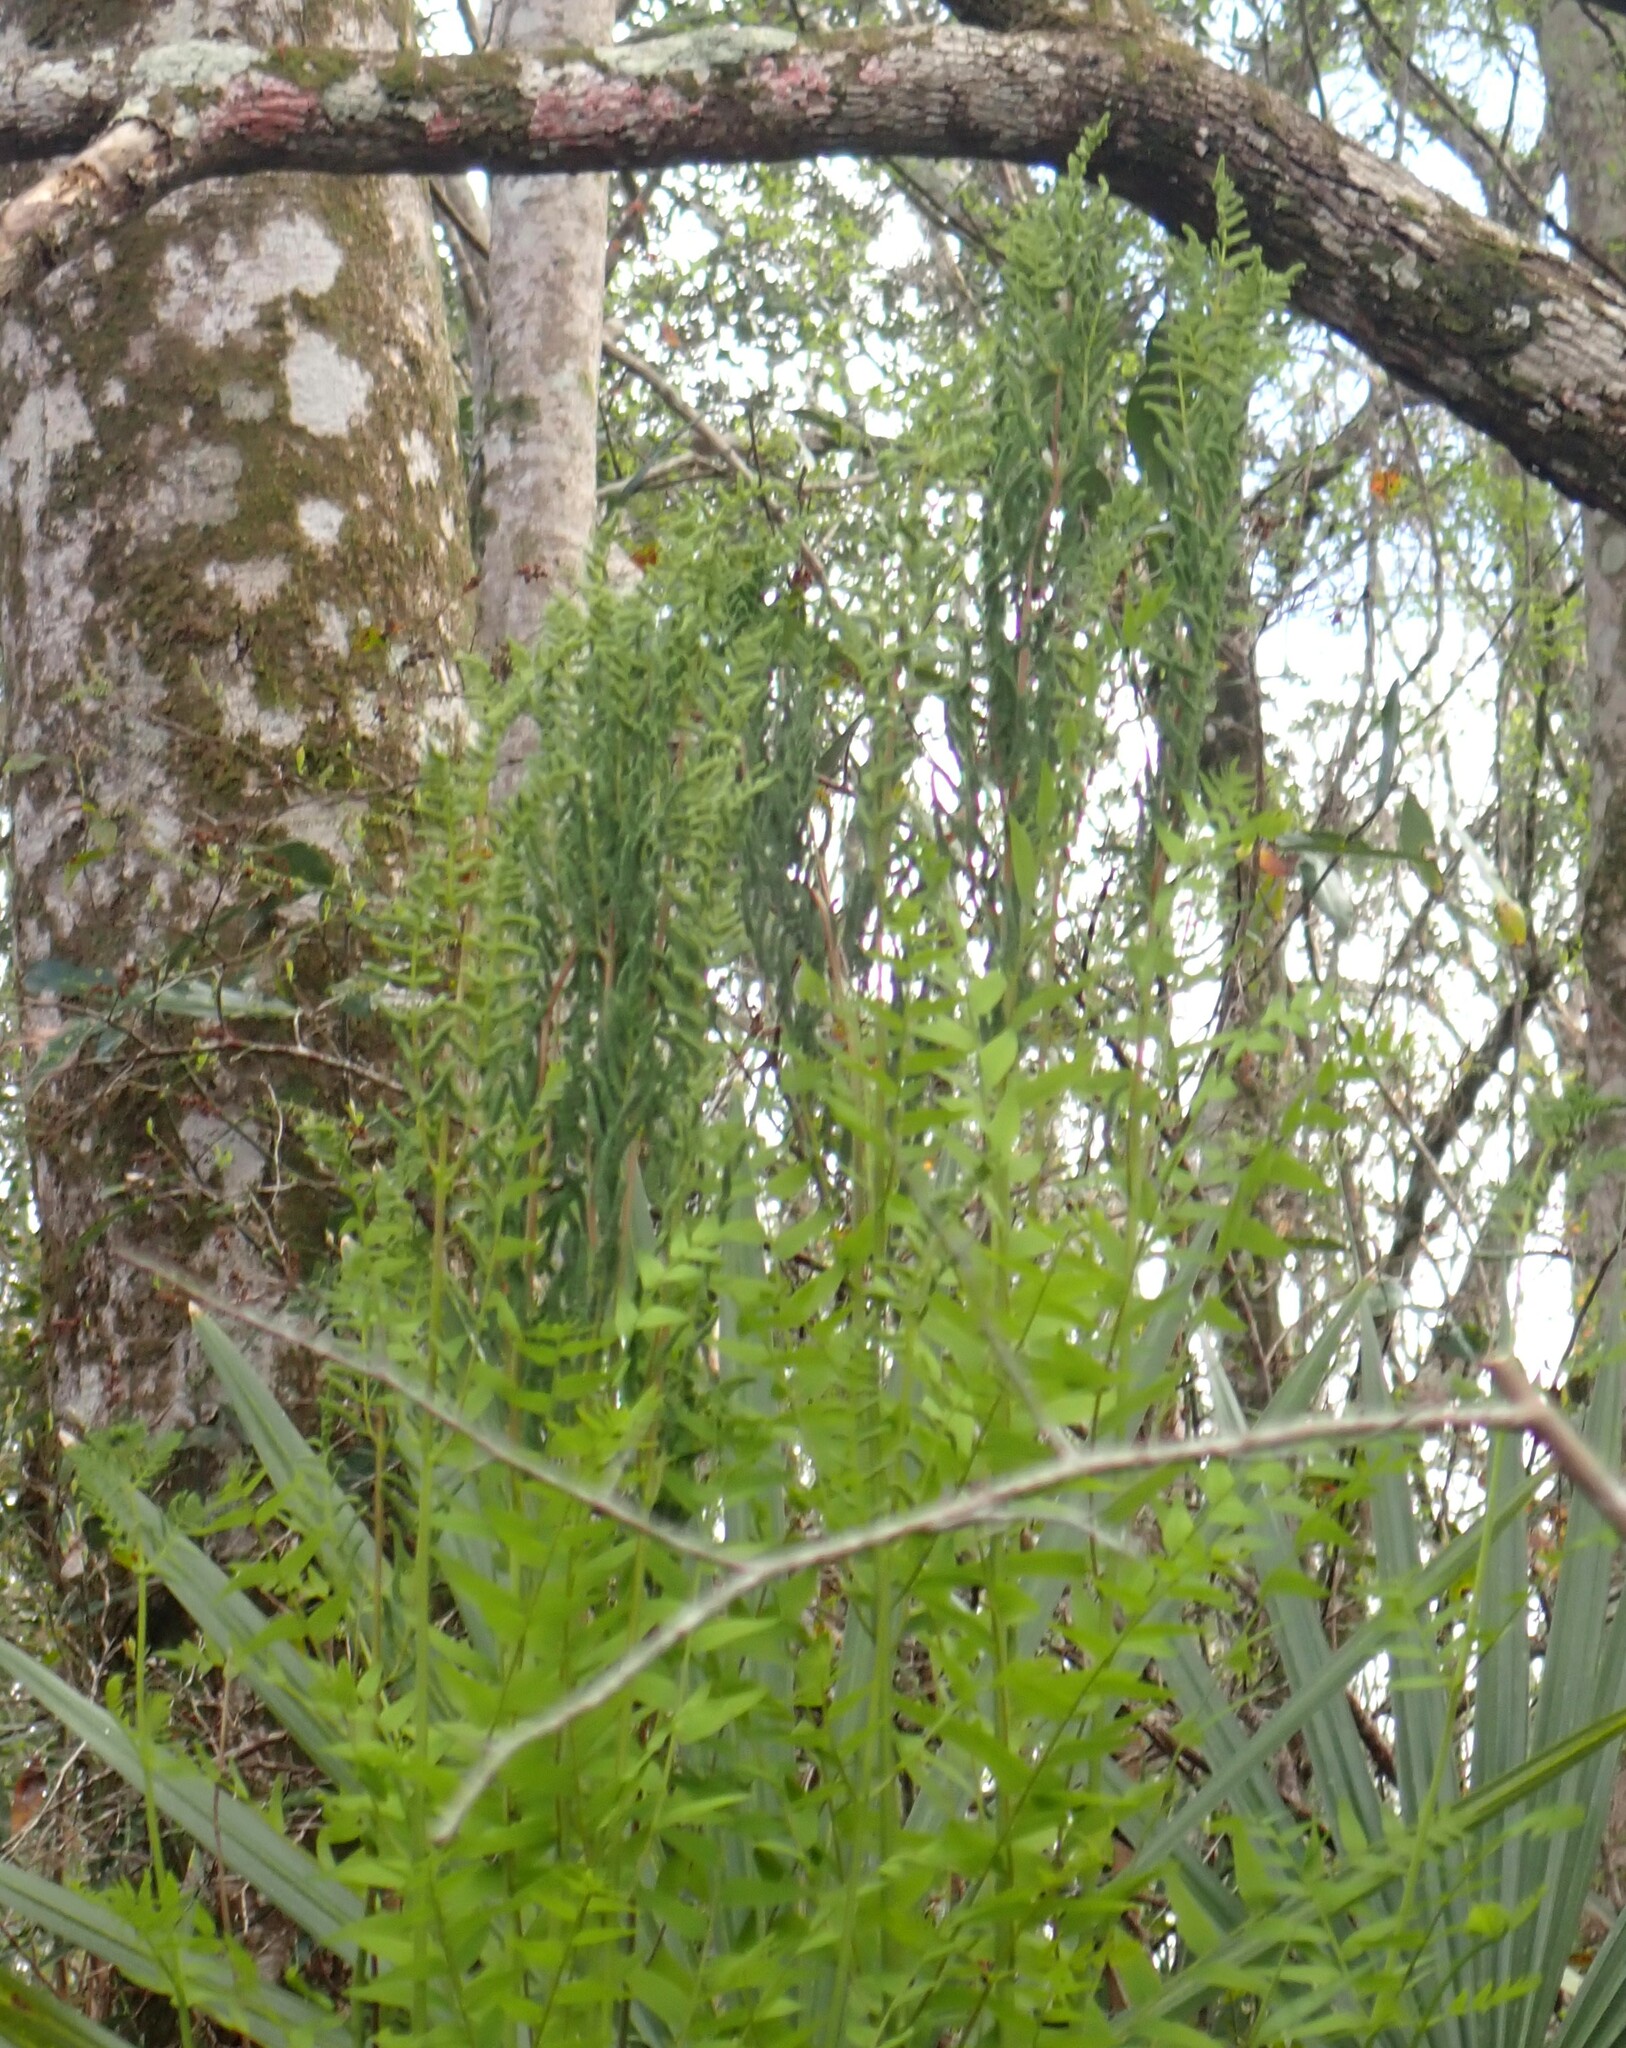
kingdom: Plantae
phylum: Tracheophyta
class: Polypodiopsida
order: Osmundales
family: Osmundaceae
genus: Osmunda
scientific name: Osmunda spectabilis
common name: American royal fern
